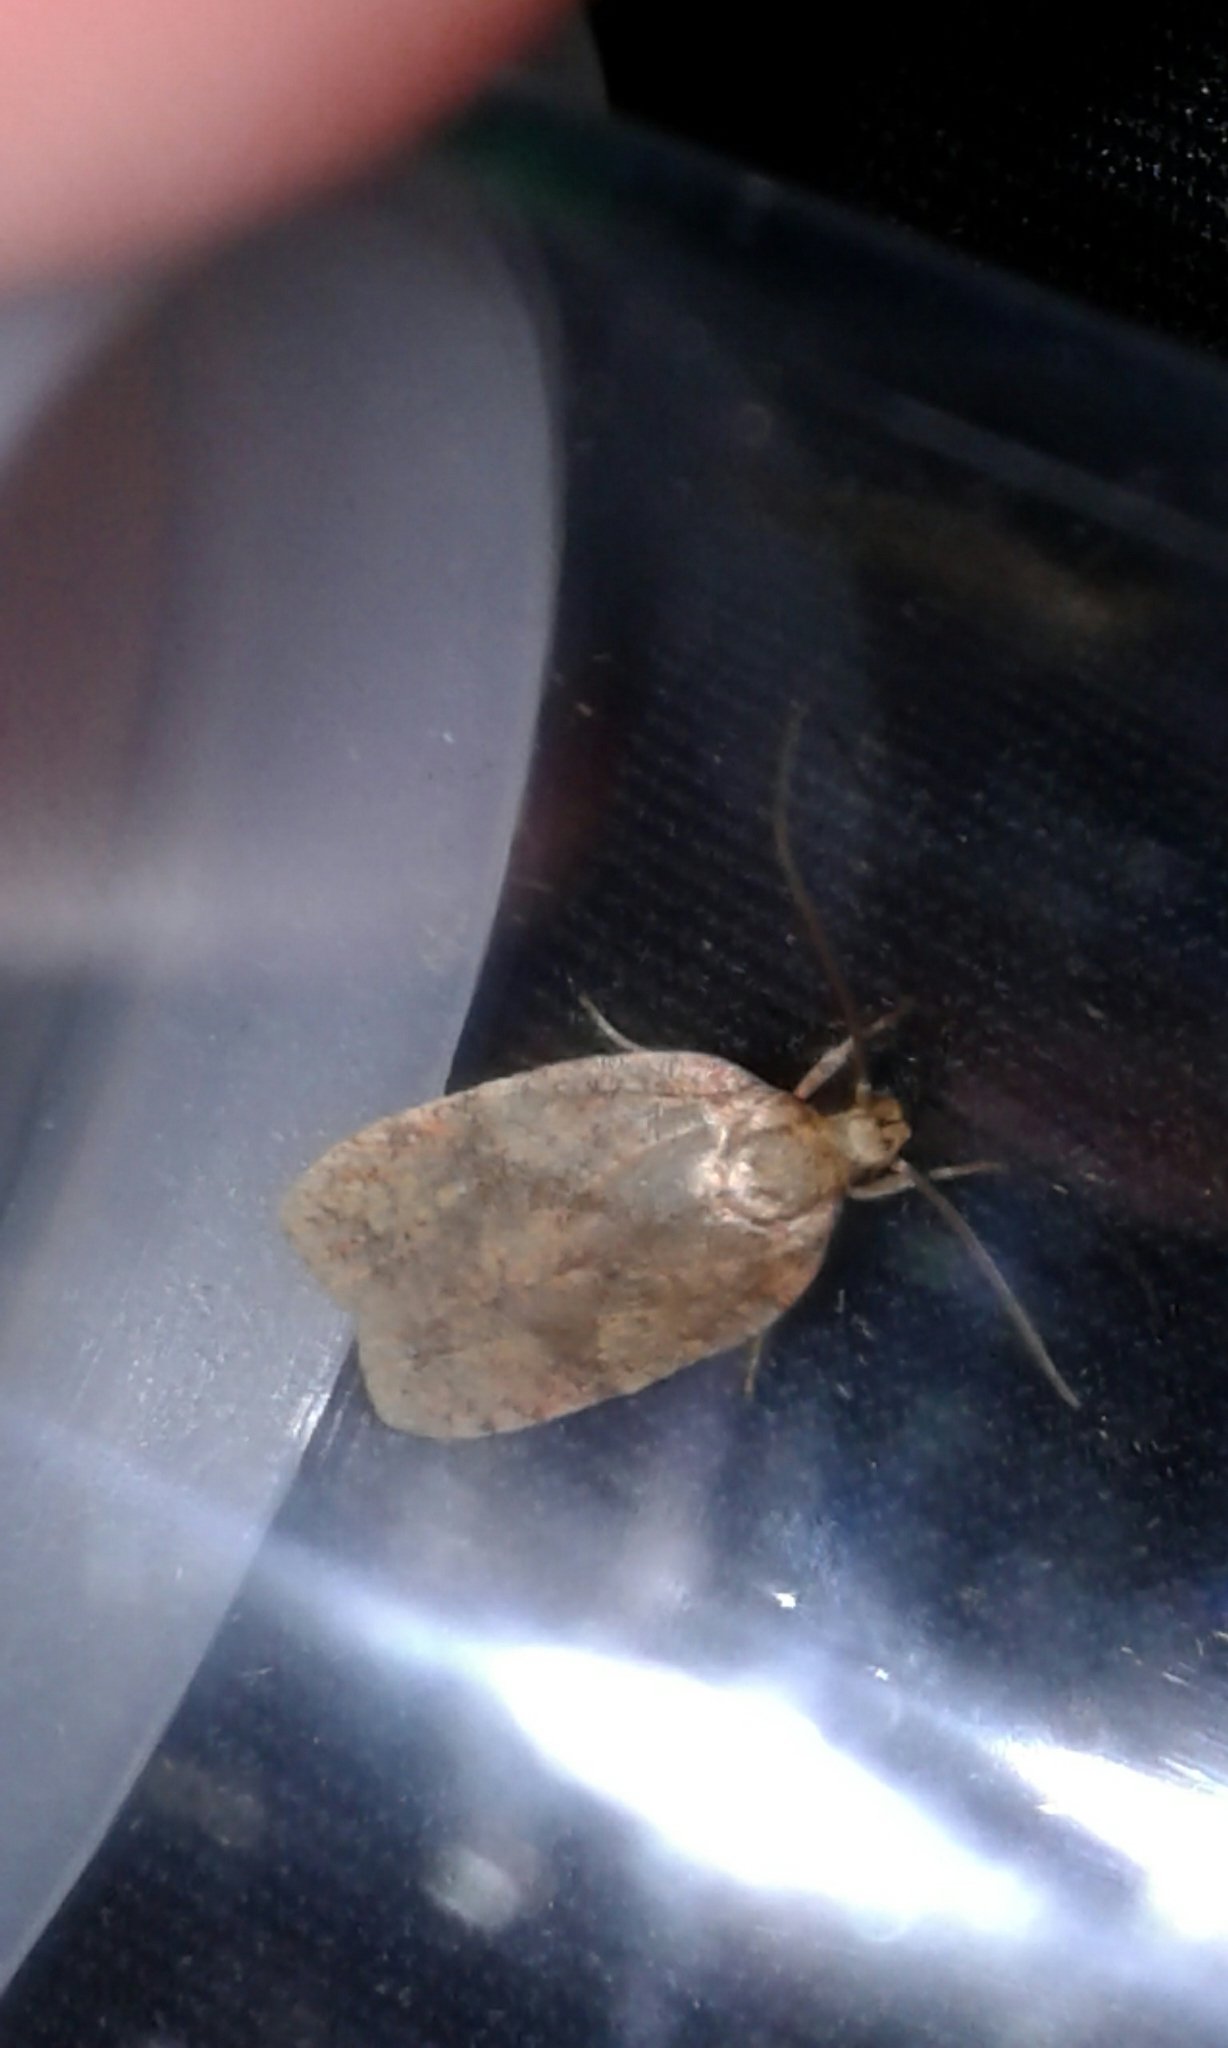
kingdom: Animalia
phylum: Arthropoda
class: Insecta
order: Lepidoptera
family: Depressariidae
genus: Agonopterix
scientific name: Agonopterix robiniella
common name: Four-dotted agonopterix moth
